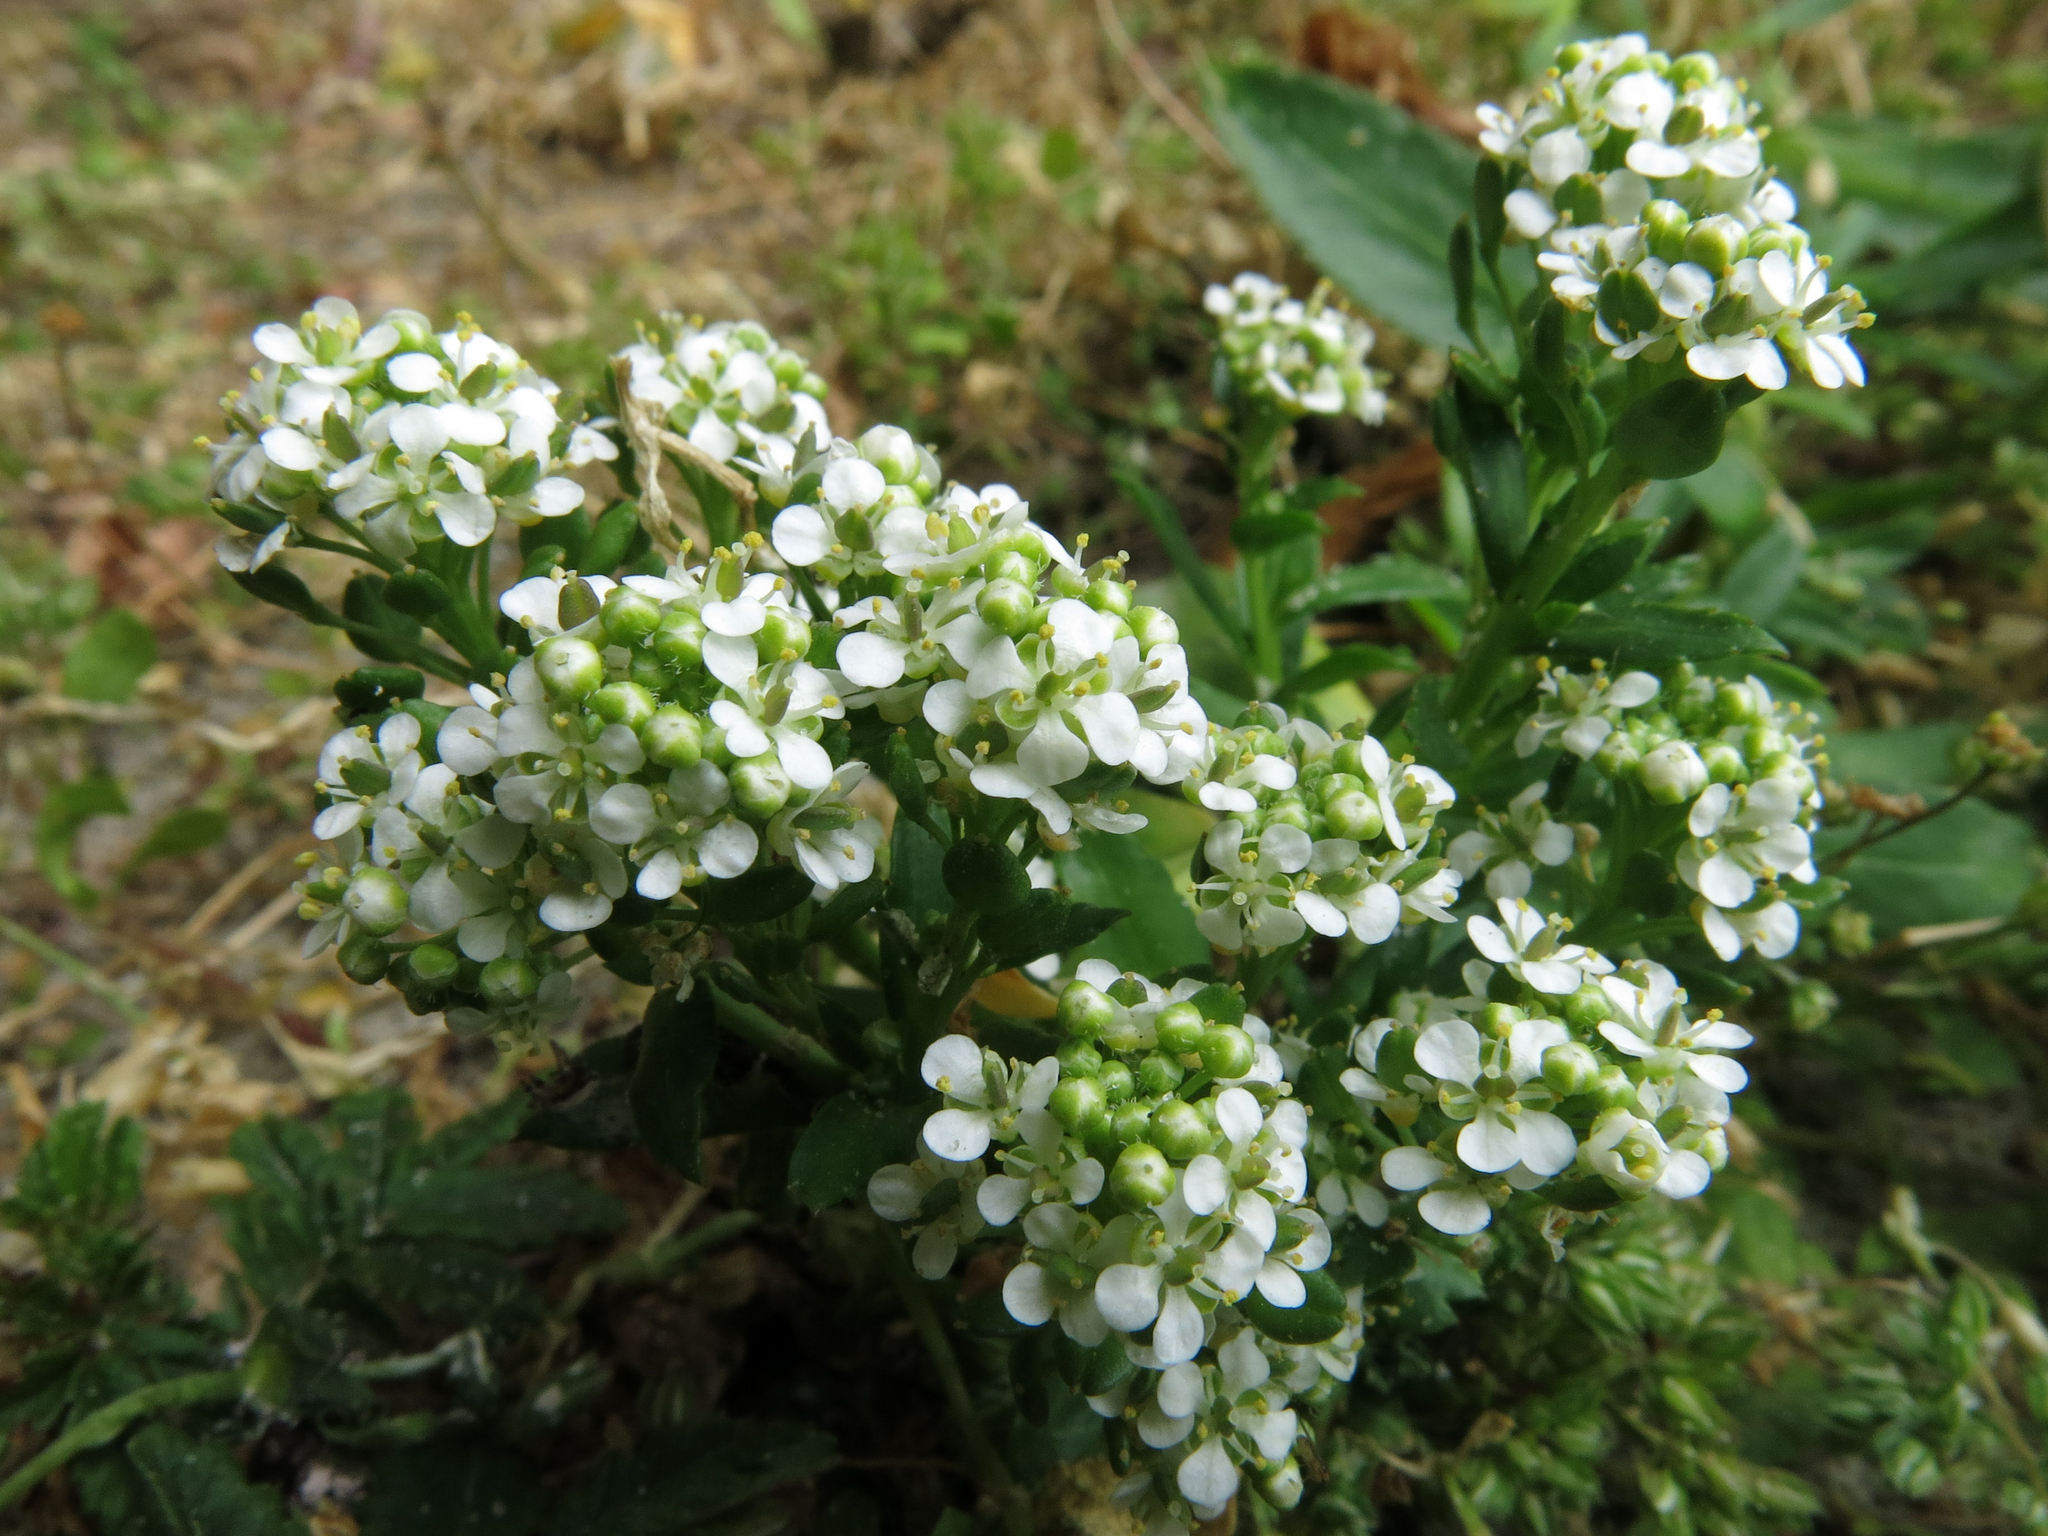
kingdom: Plantae
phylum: Tracheophyta
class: Magnoliopsida
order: Brassicales
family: Brassicaceae
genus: Lepidium
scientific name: Lepidium juvencum
